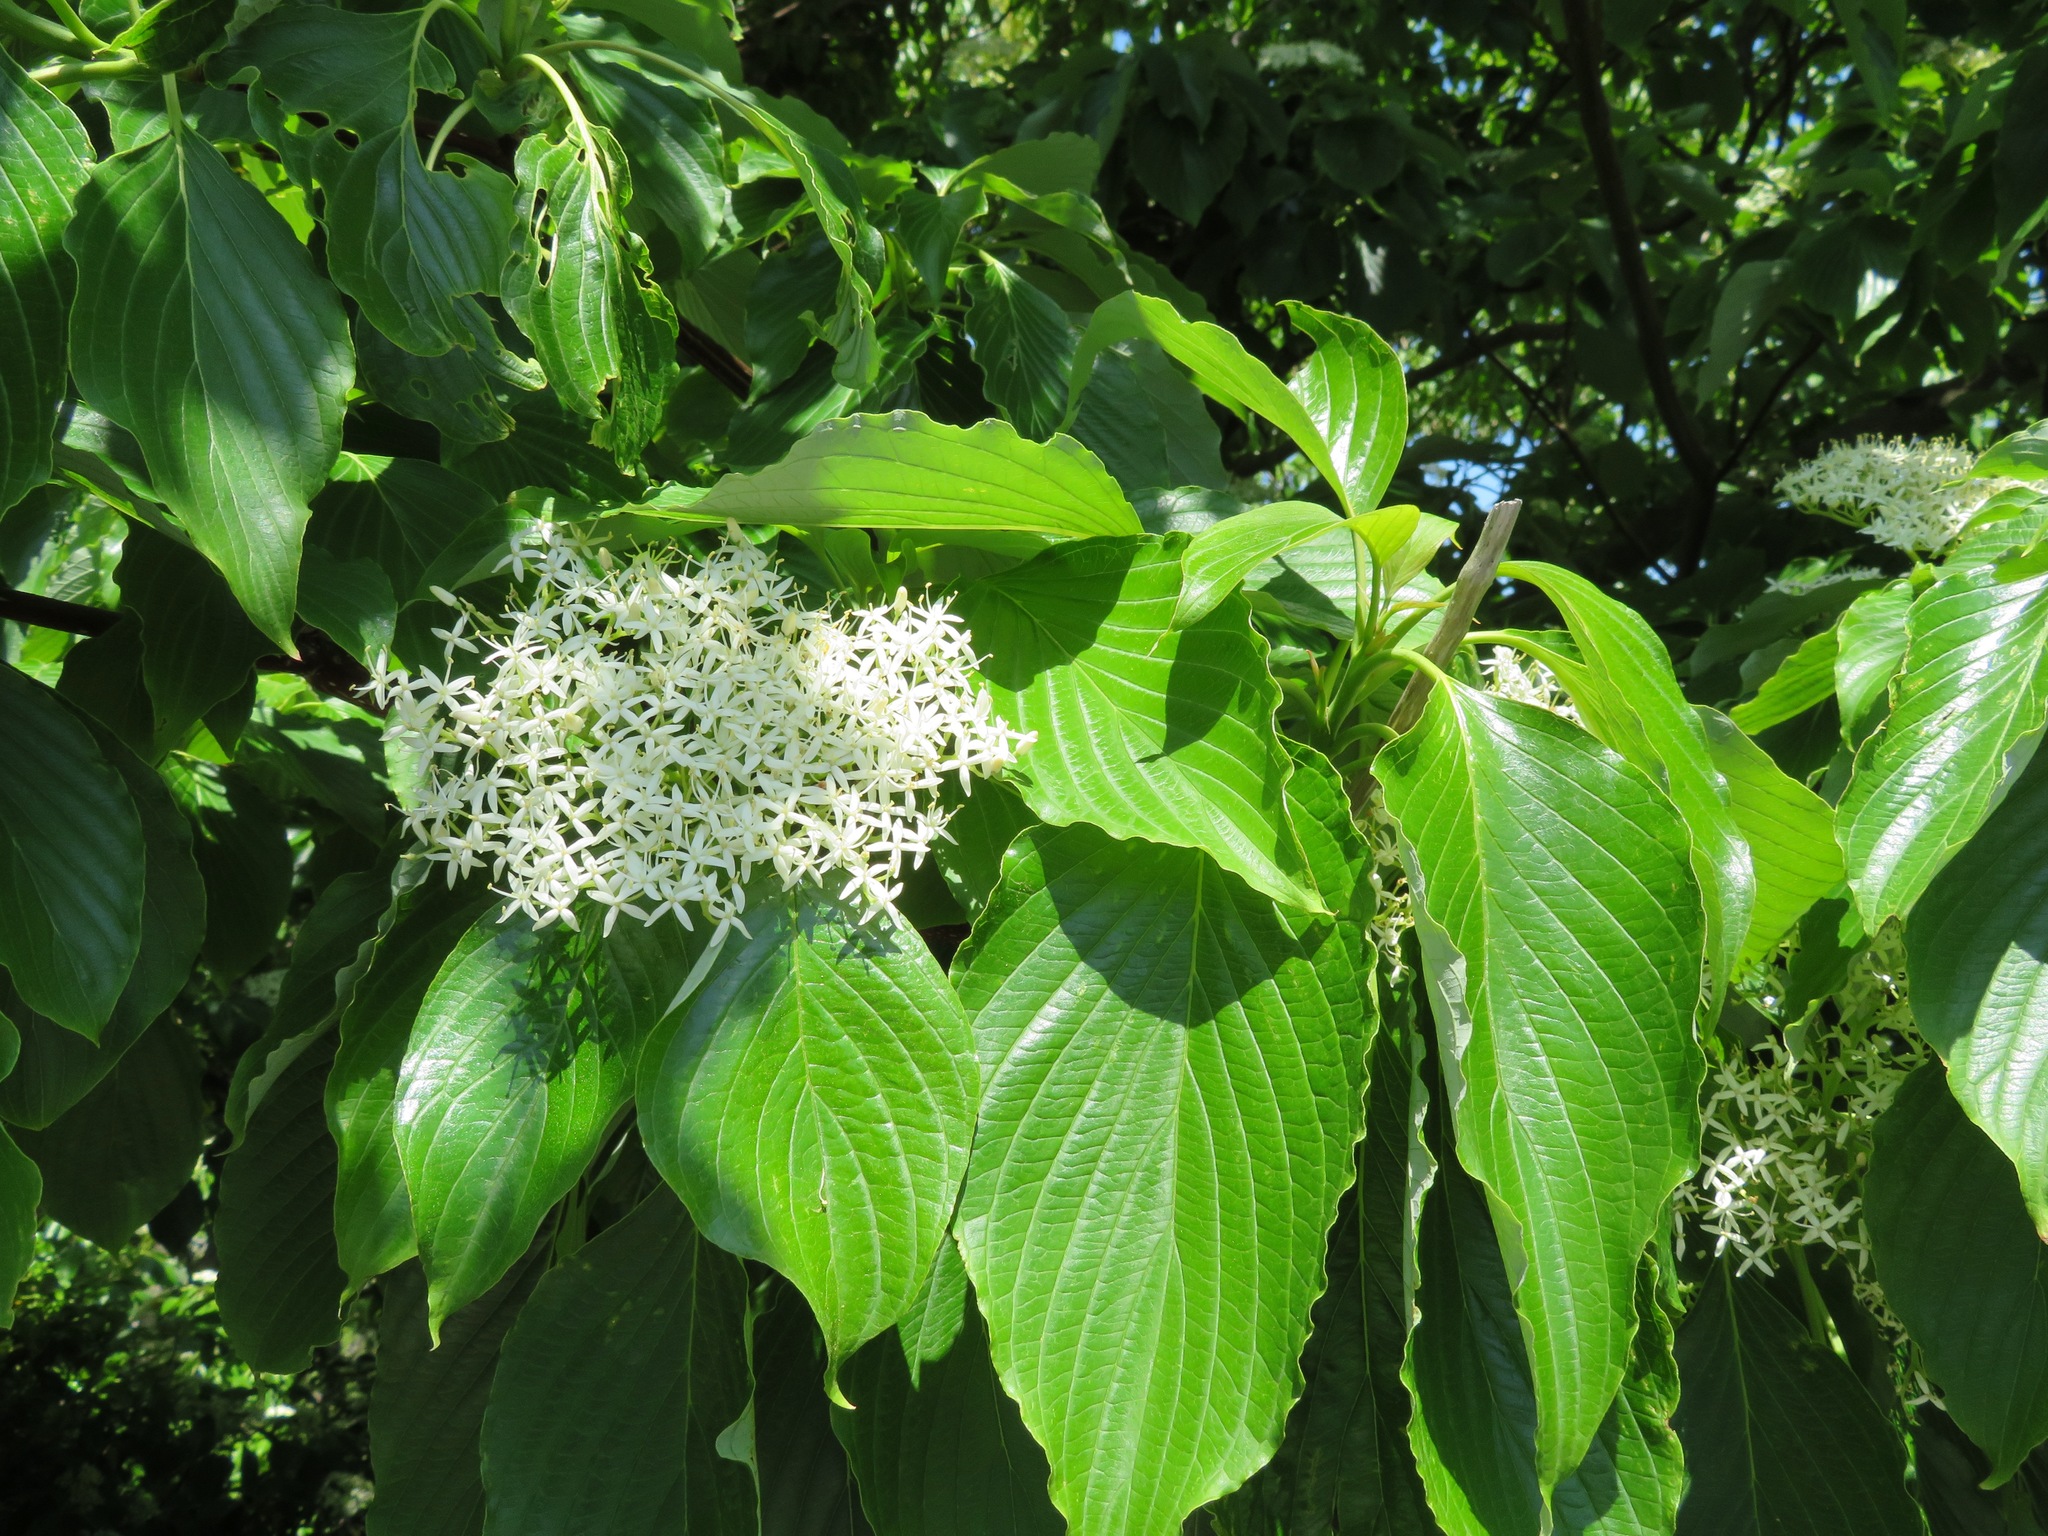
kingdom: Plantae
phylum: Tracheophyta
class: Magnoliopsida
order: Cornales
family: Cornaceae
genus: Cornus
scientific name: Cornus controversa
